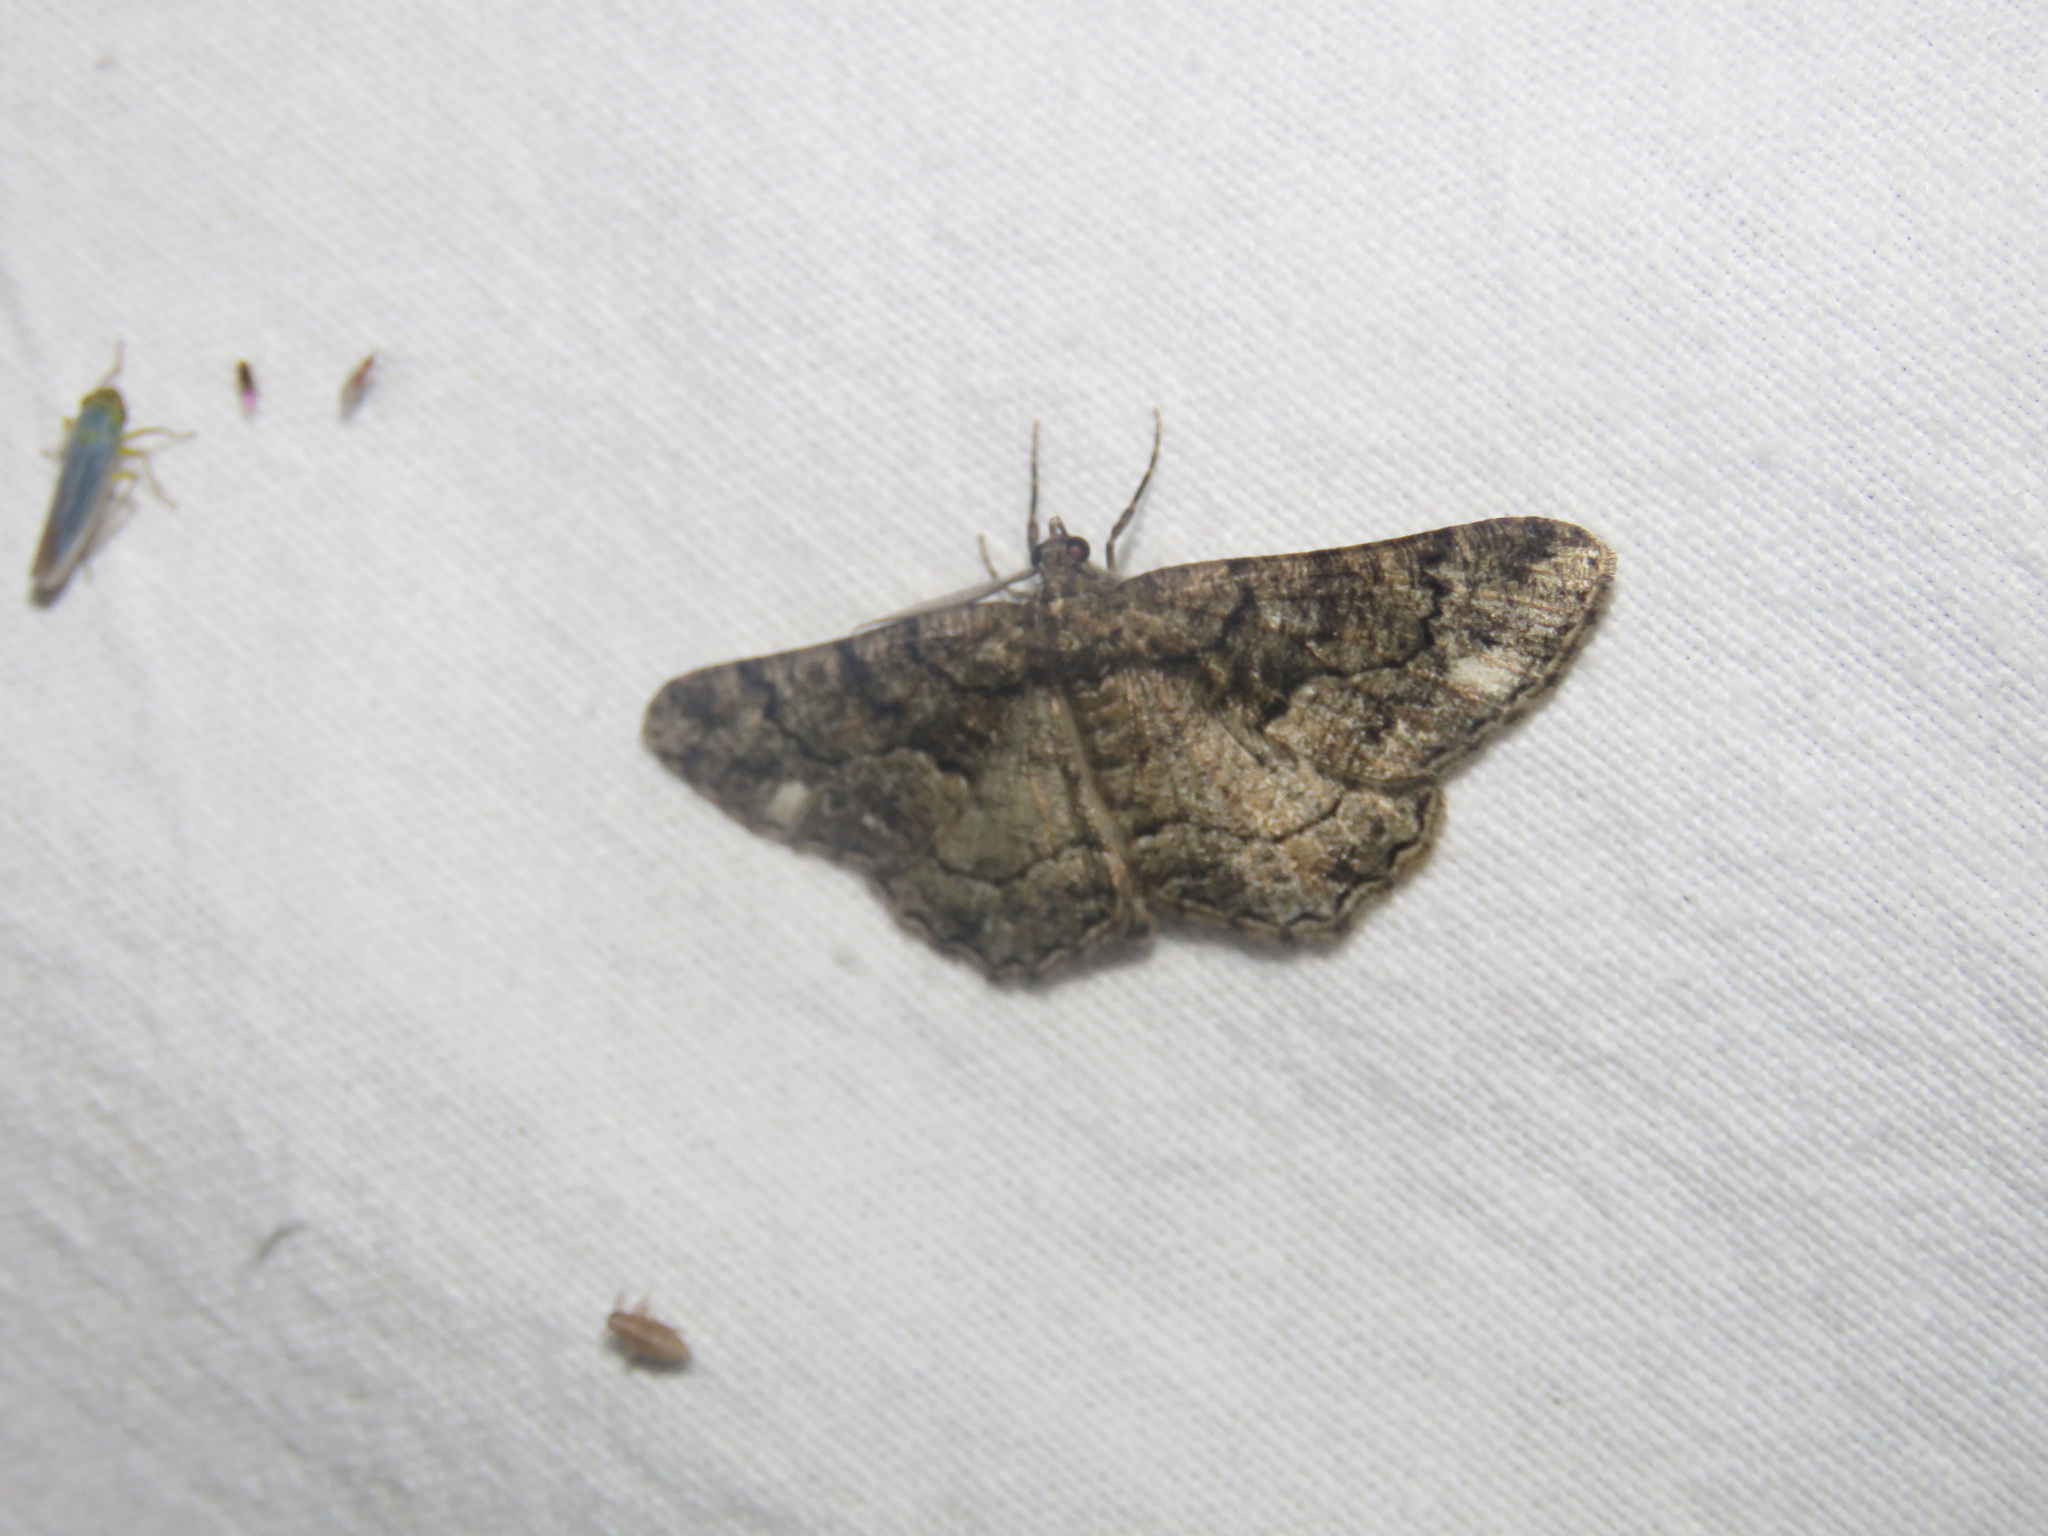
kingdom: Animalia
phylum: Arthropoda
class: Insecta
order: Lepidoptera
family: Geometridae
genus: Peribatodes
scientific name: Peribatodes ilicaria
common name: Lydd beauty
